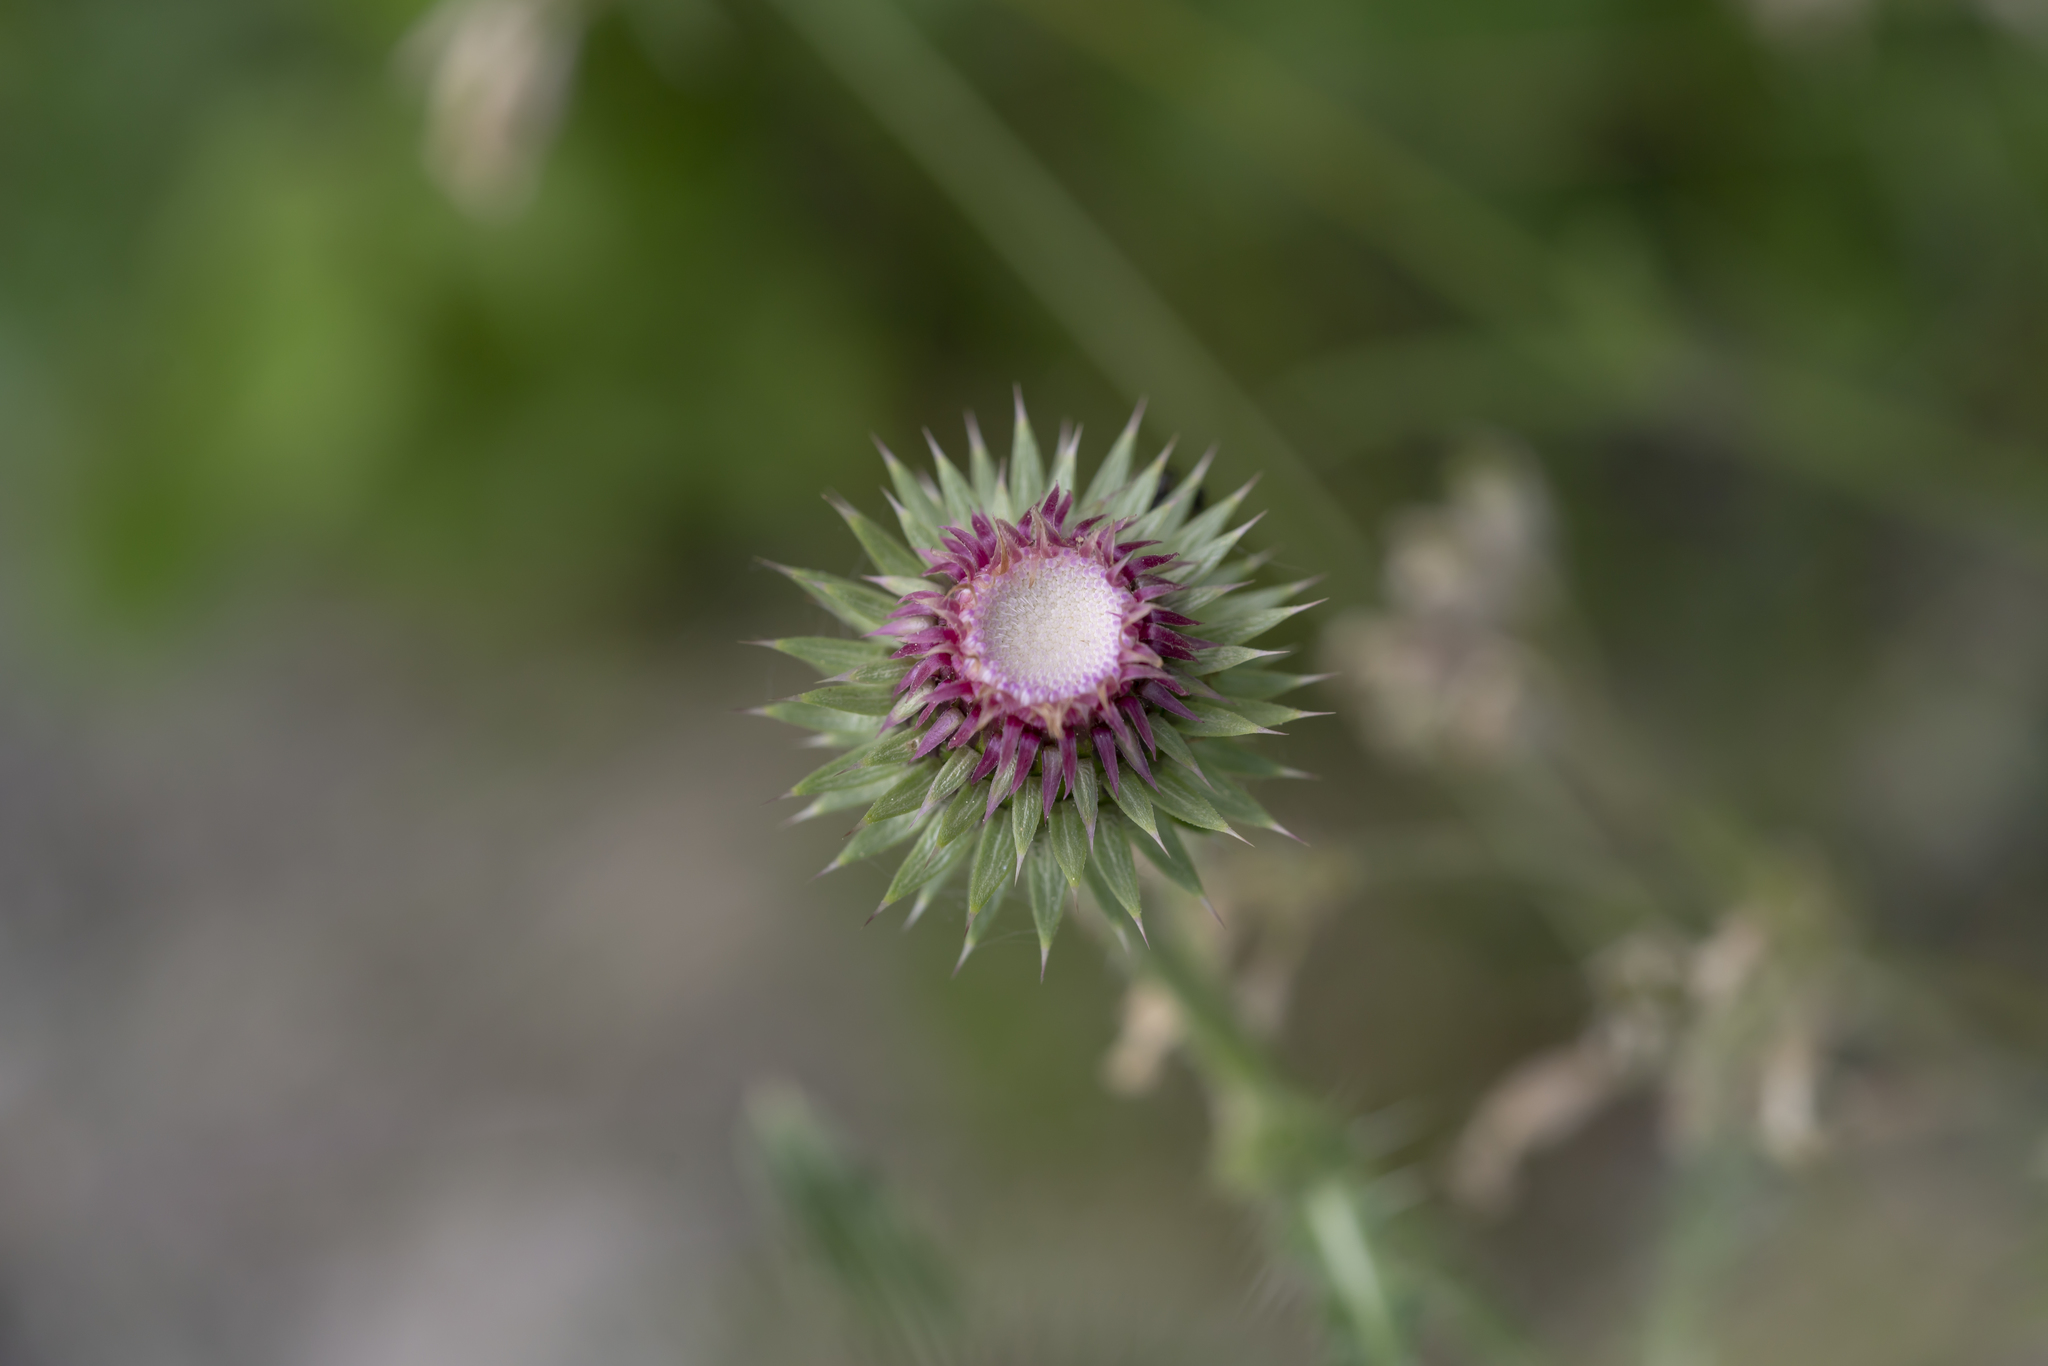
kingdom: Plantae
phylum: Tracheophyta
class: Magnoliopsida
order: Asterales
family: Asteraceae
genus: Carduus
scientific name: Carduus nutans
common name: Musk thistle
